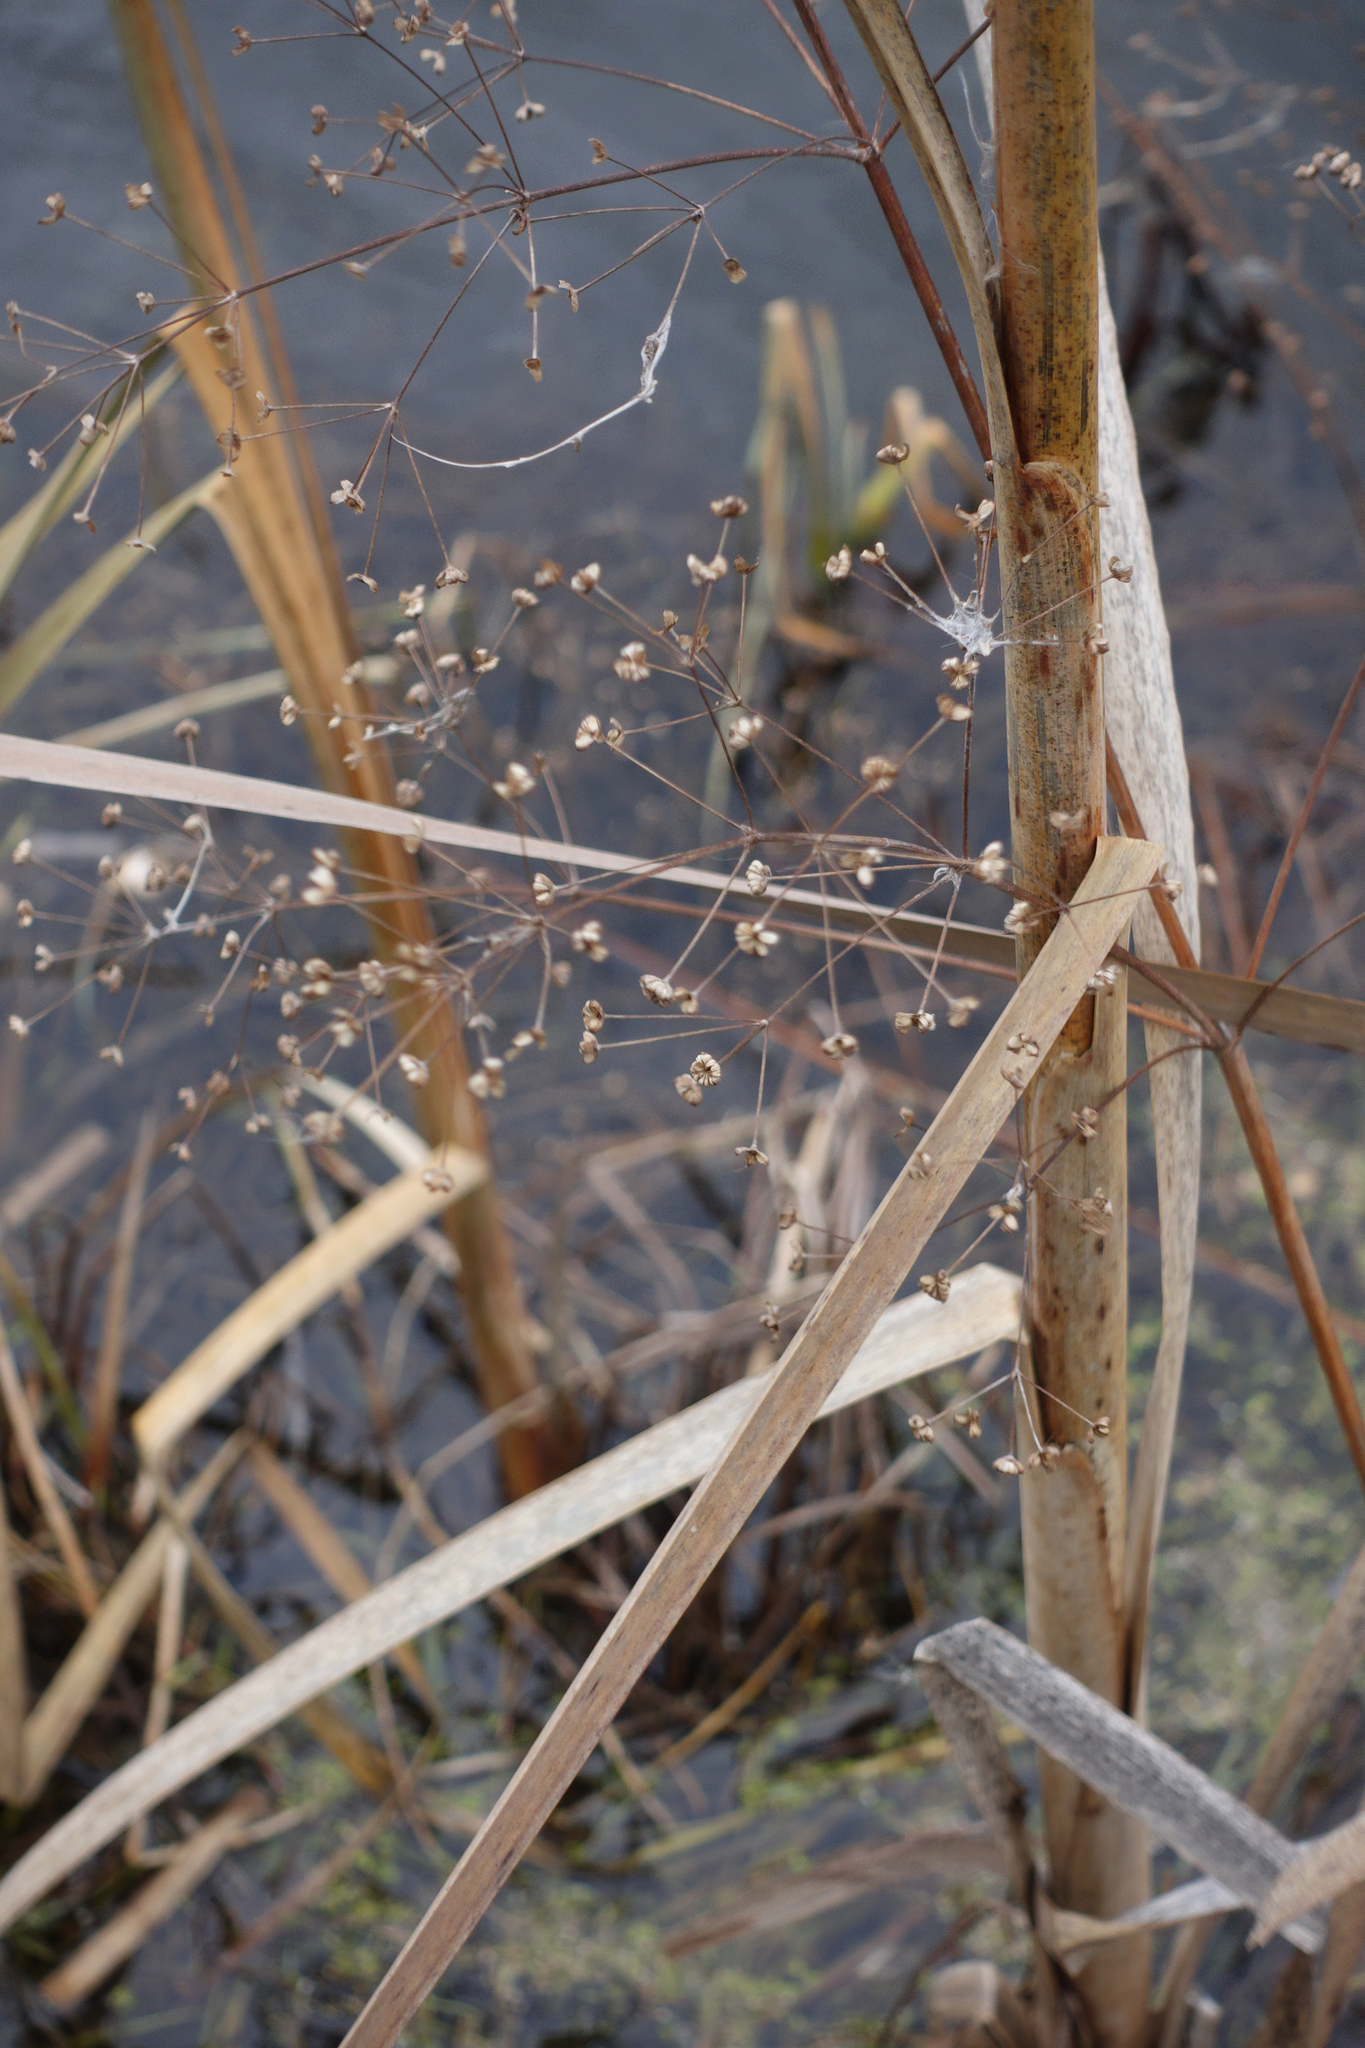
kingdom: Plantae
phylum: Tracheophyta
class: Liliopsida
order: Alismatales
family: Alismataceae
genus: Alisma
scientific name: Alisma plantago-aquatica
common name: Water-plantain
